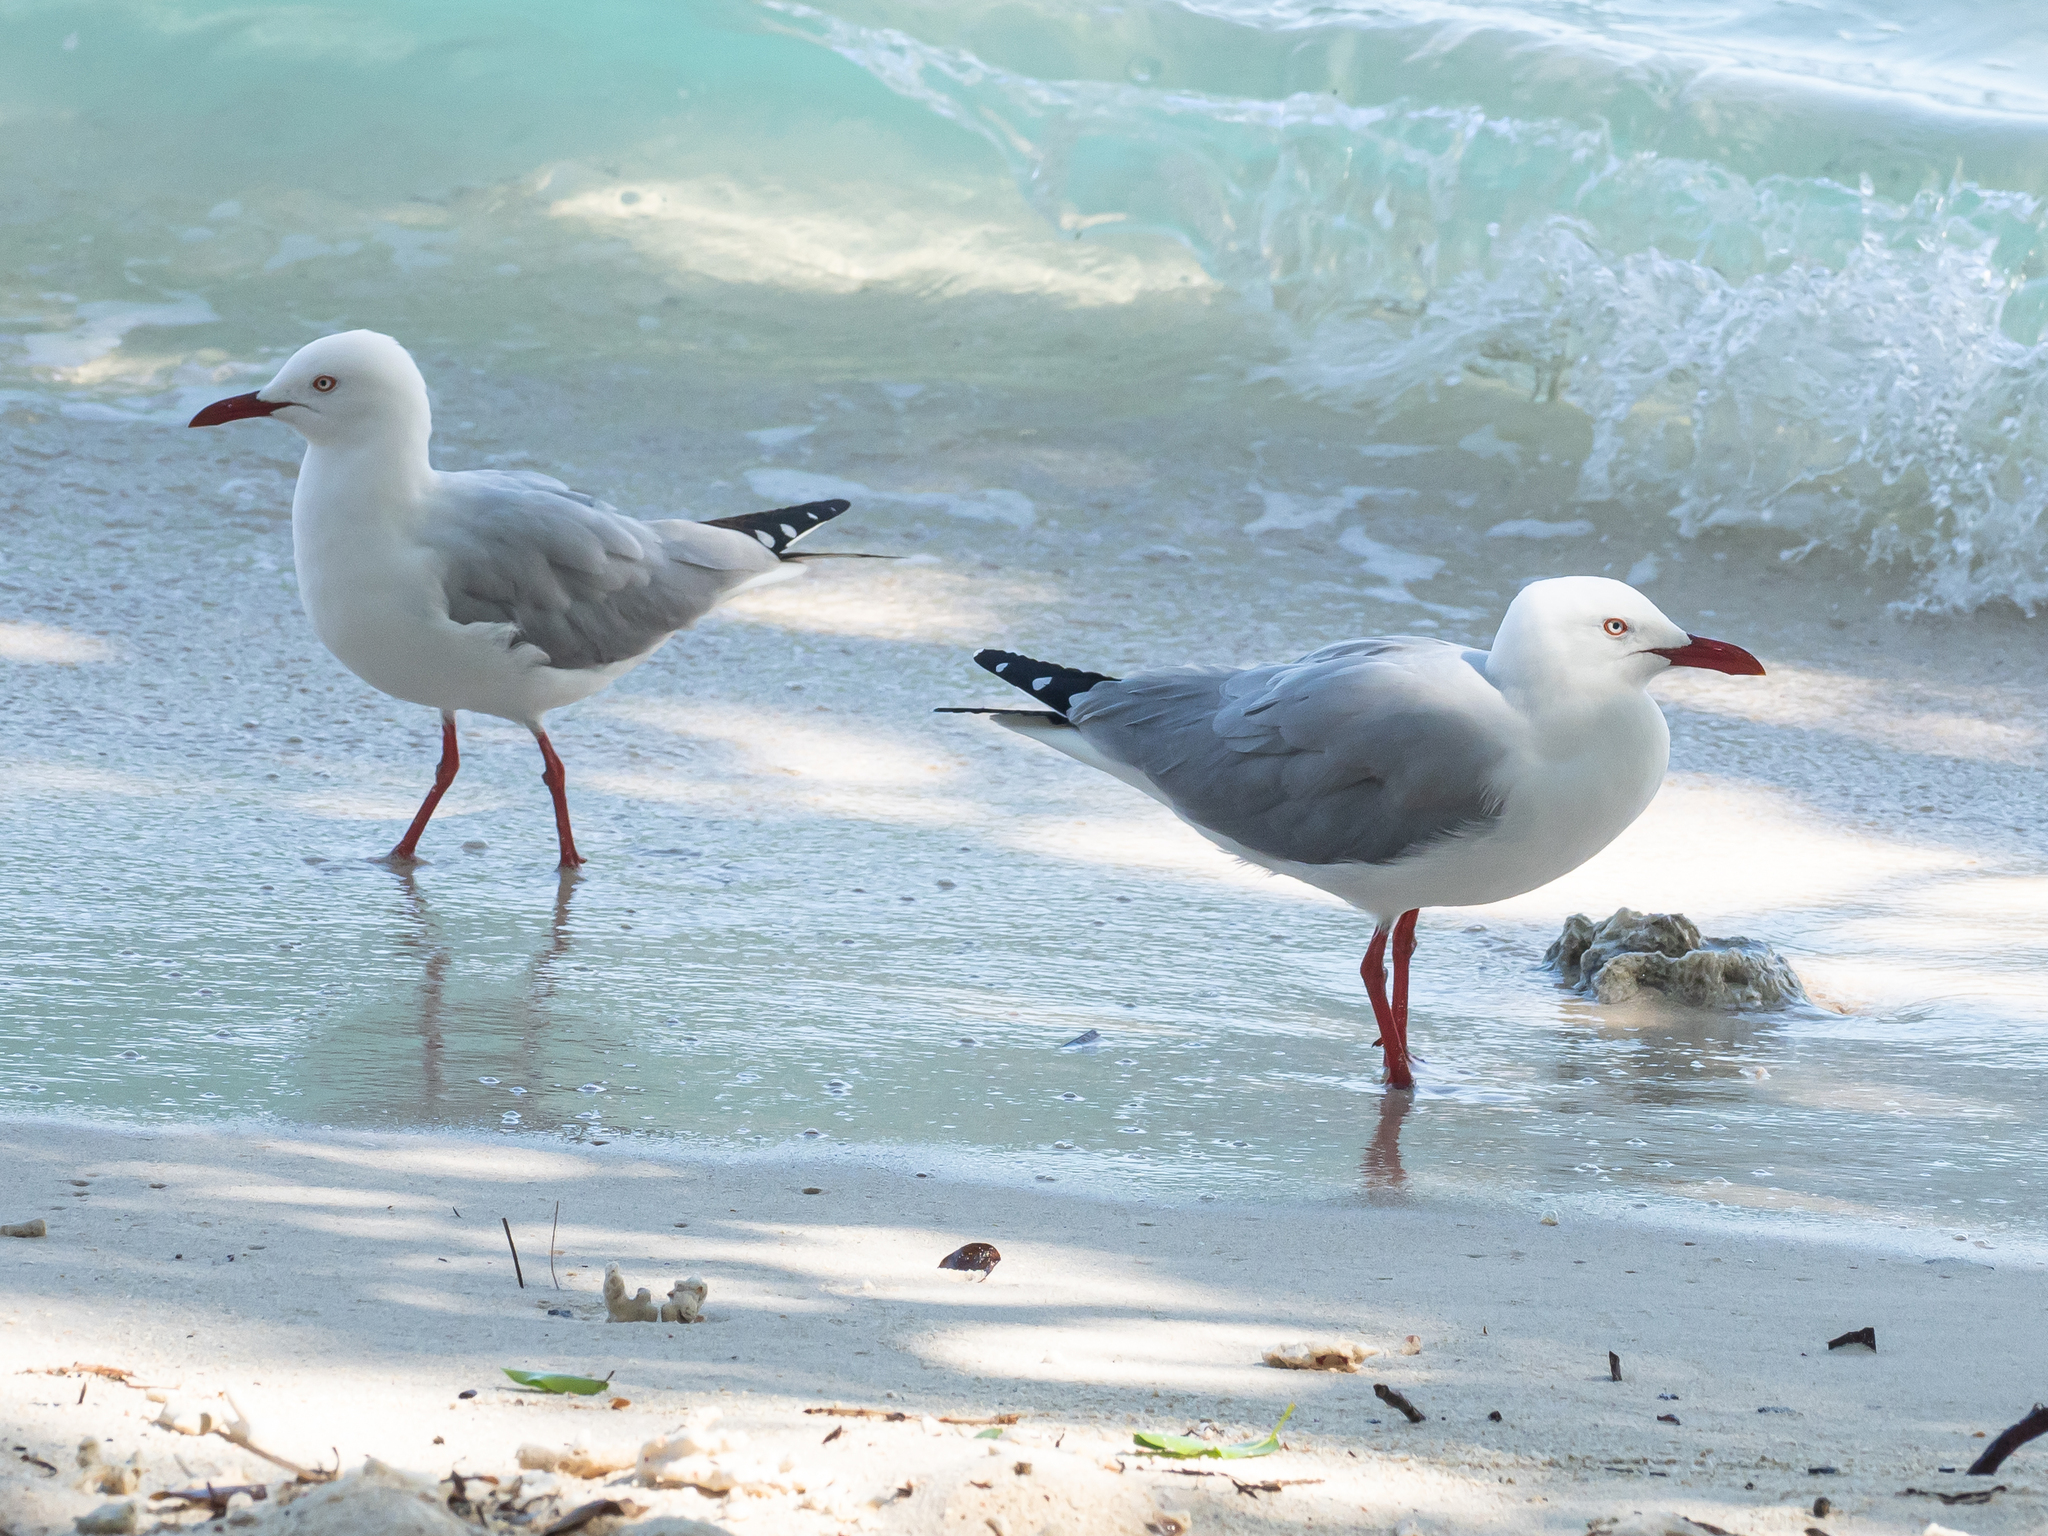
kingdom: Animalia
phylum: Chordata
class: Aves
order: Charadriiformes
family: Laridae
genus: Chroicocephalus
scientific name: Chroicocephalus novaehollandiae
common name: Silver gull
